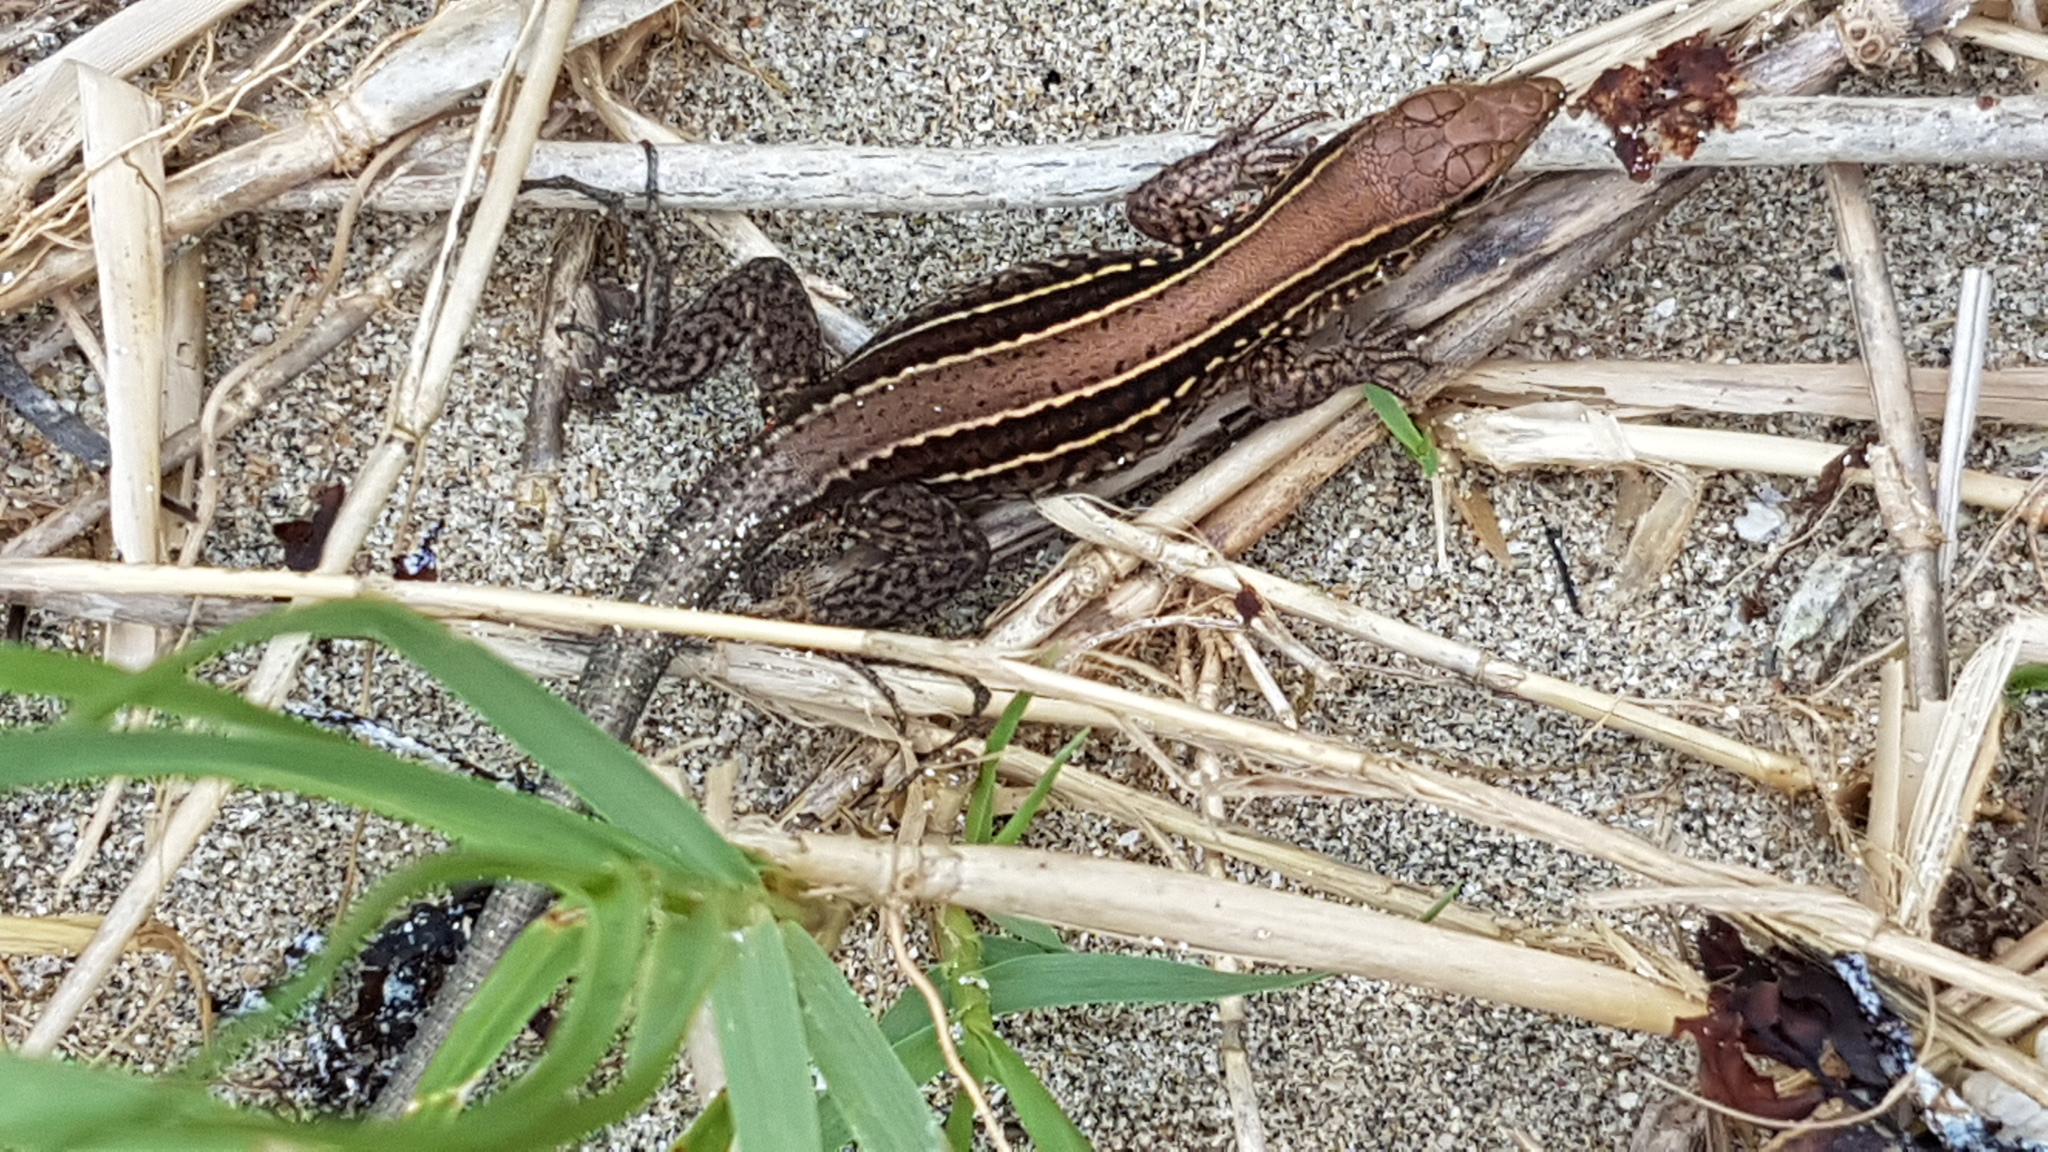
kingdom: Animalia
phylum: Chordata
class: Squamata
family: Teiidae
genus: Holcosus
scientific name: Holcosus quadrilineatus
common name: Four-lined ameiva
